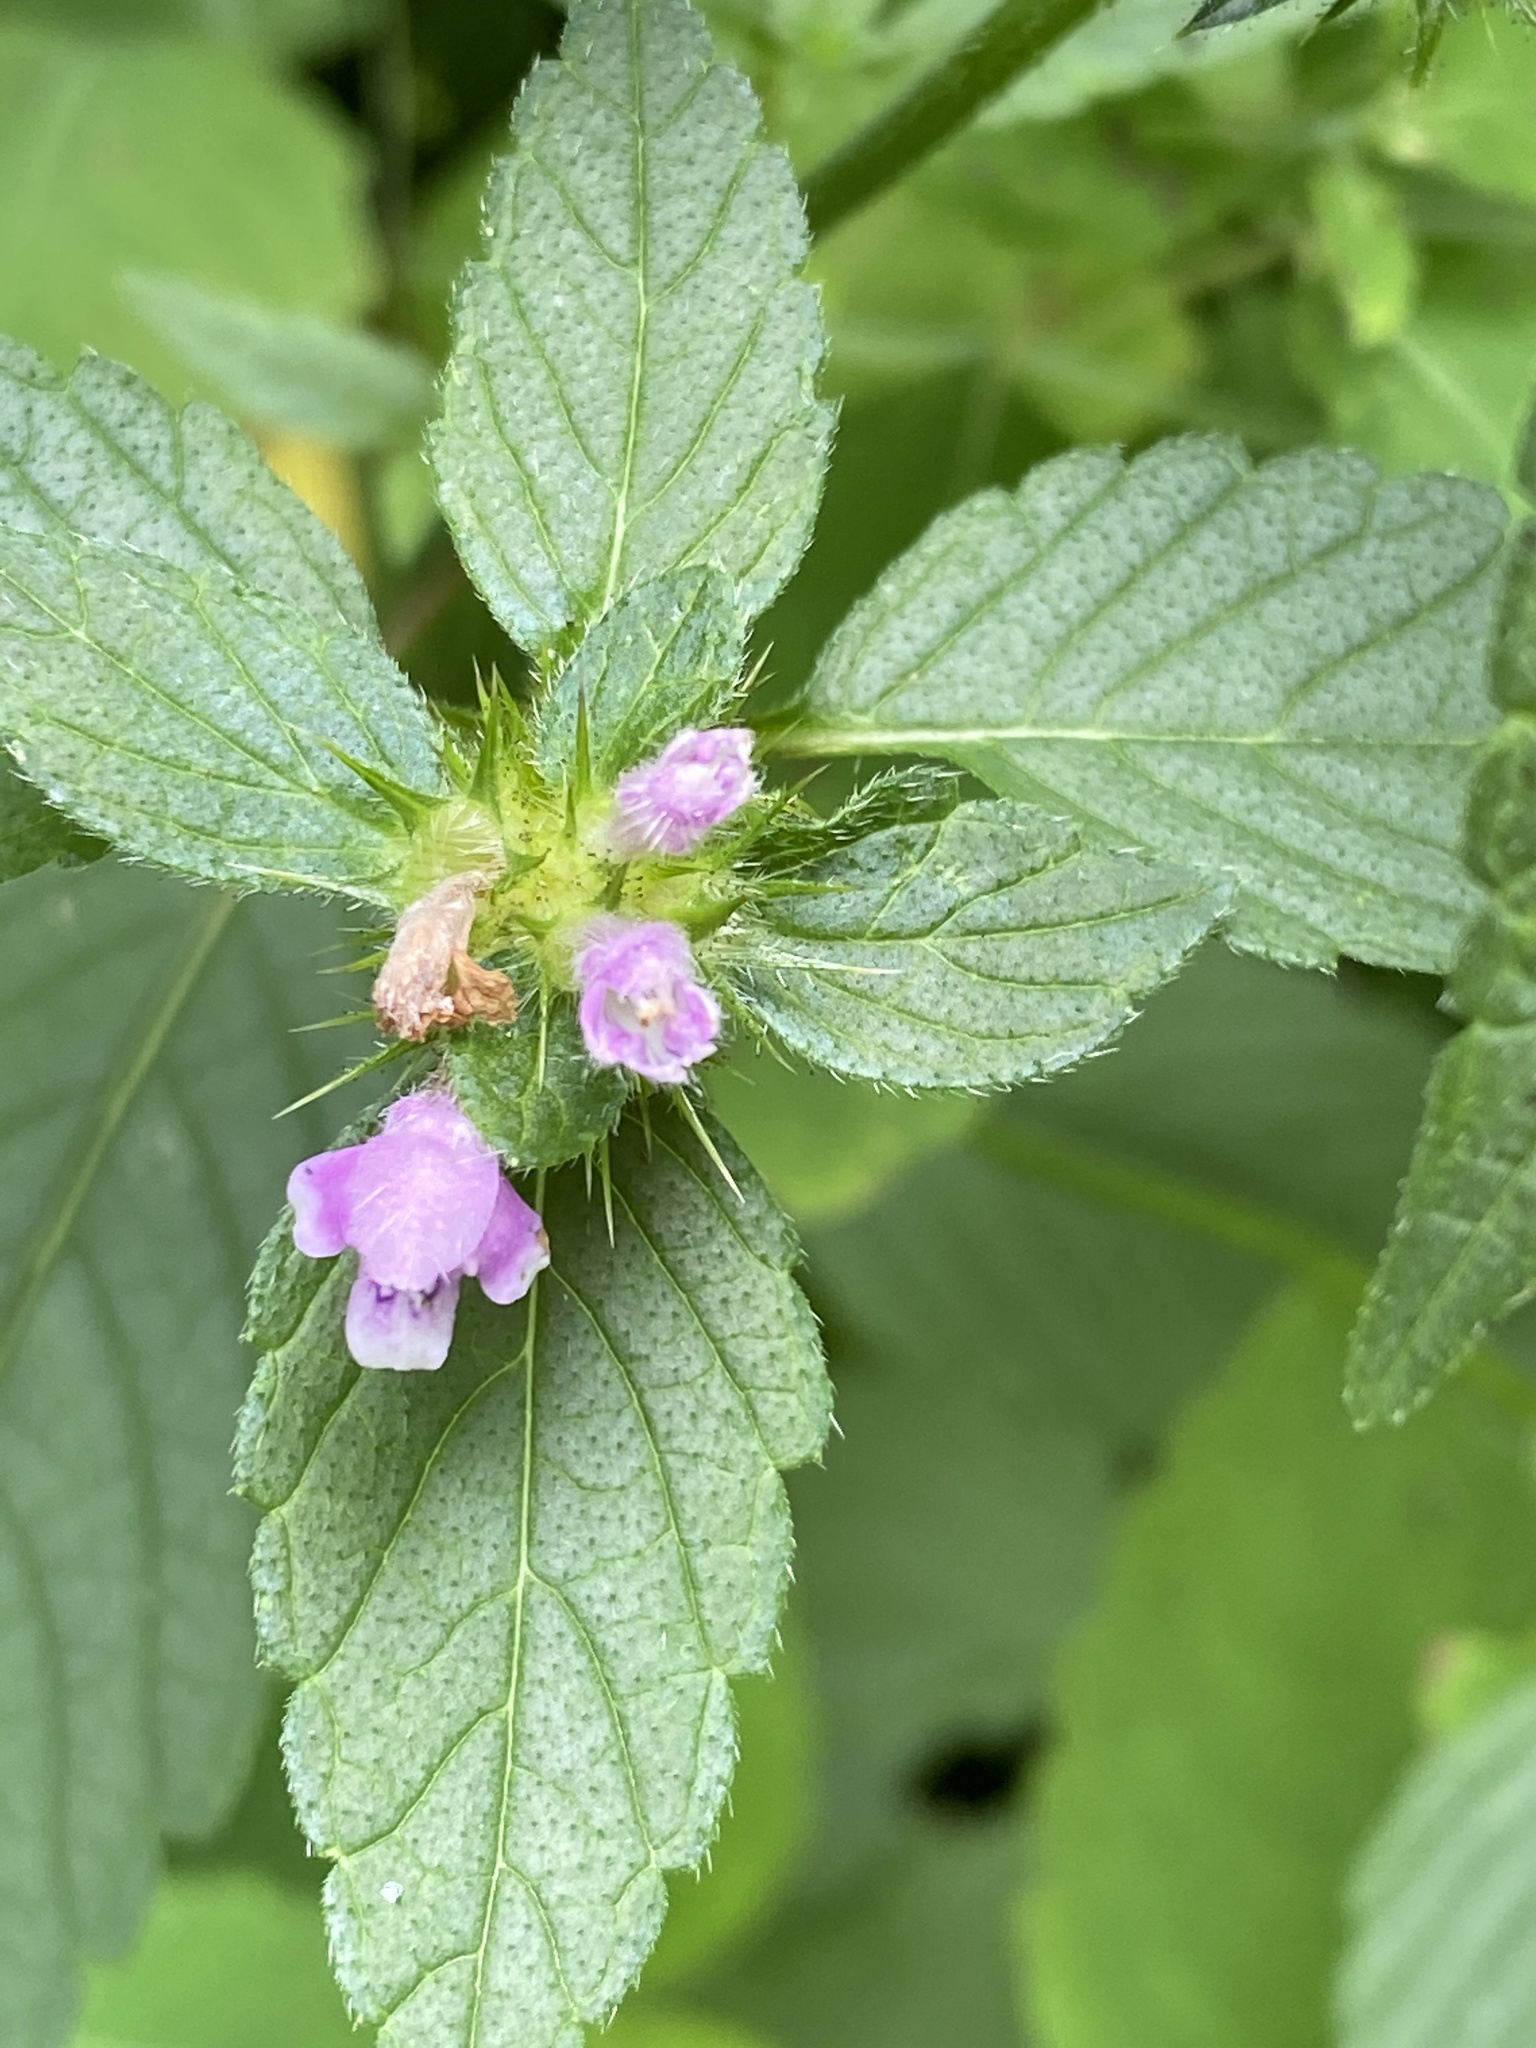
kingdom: Plantae
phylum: Tracheophyta
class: Magnoliopsida
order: Lamiales
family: Lamiaceae
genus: Galeopsis
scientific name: Galeopsis tetrahit
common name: Common hemp-nettle
